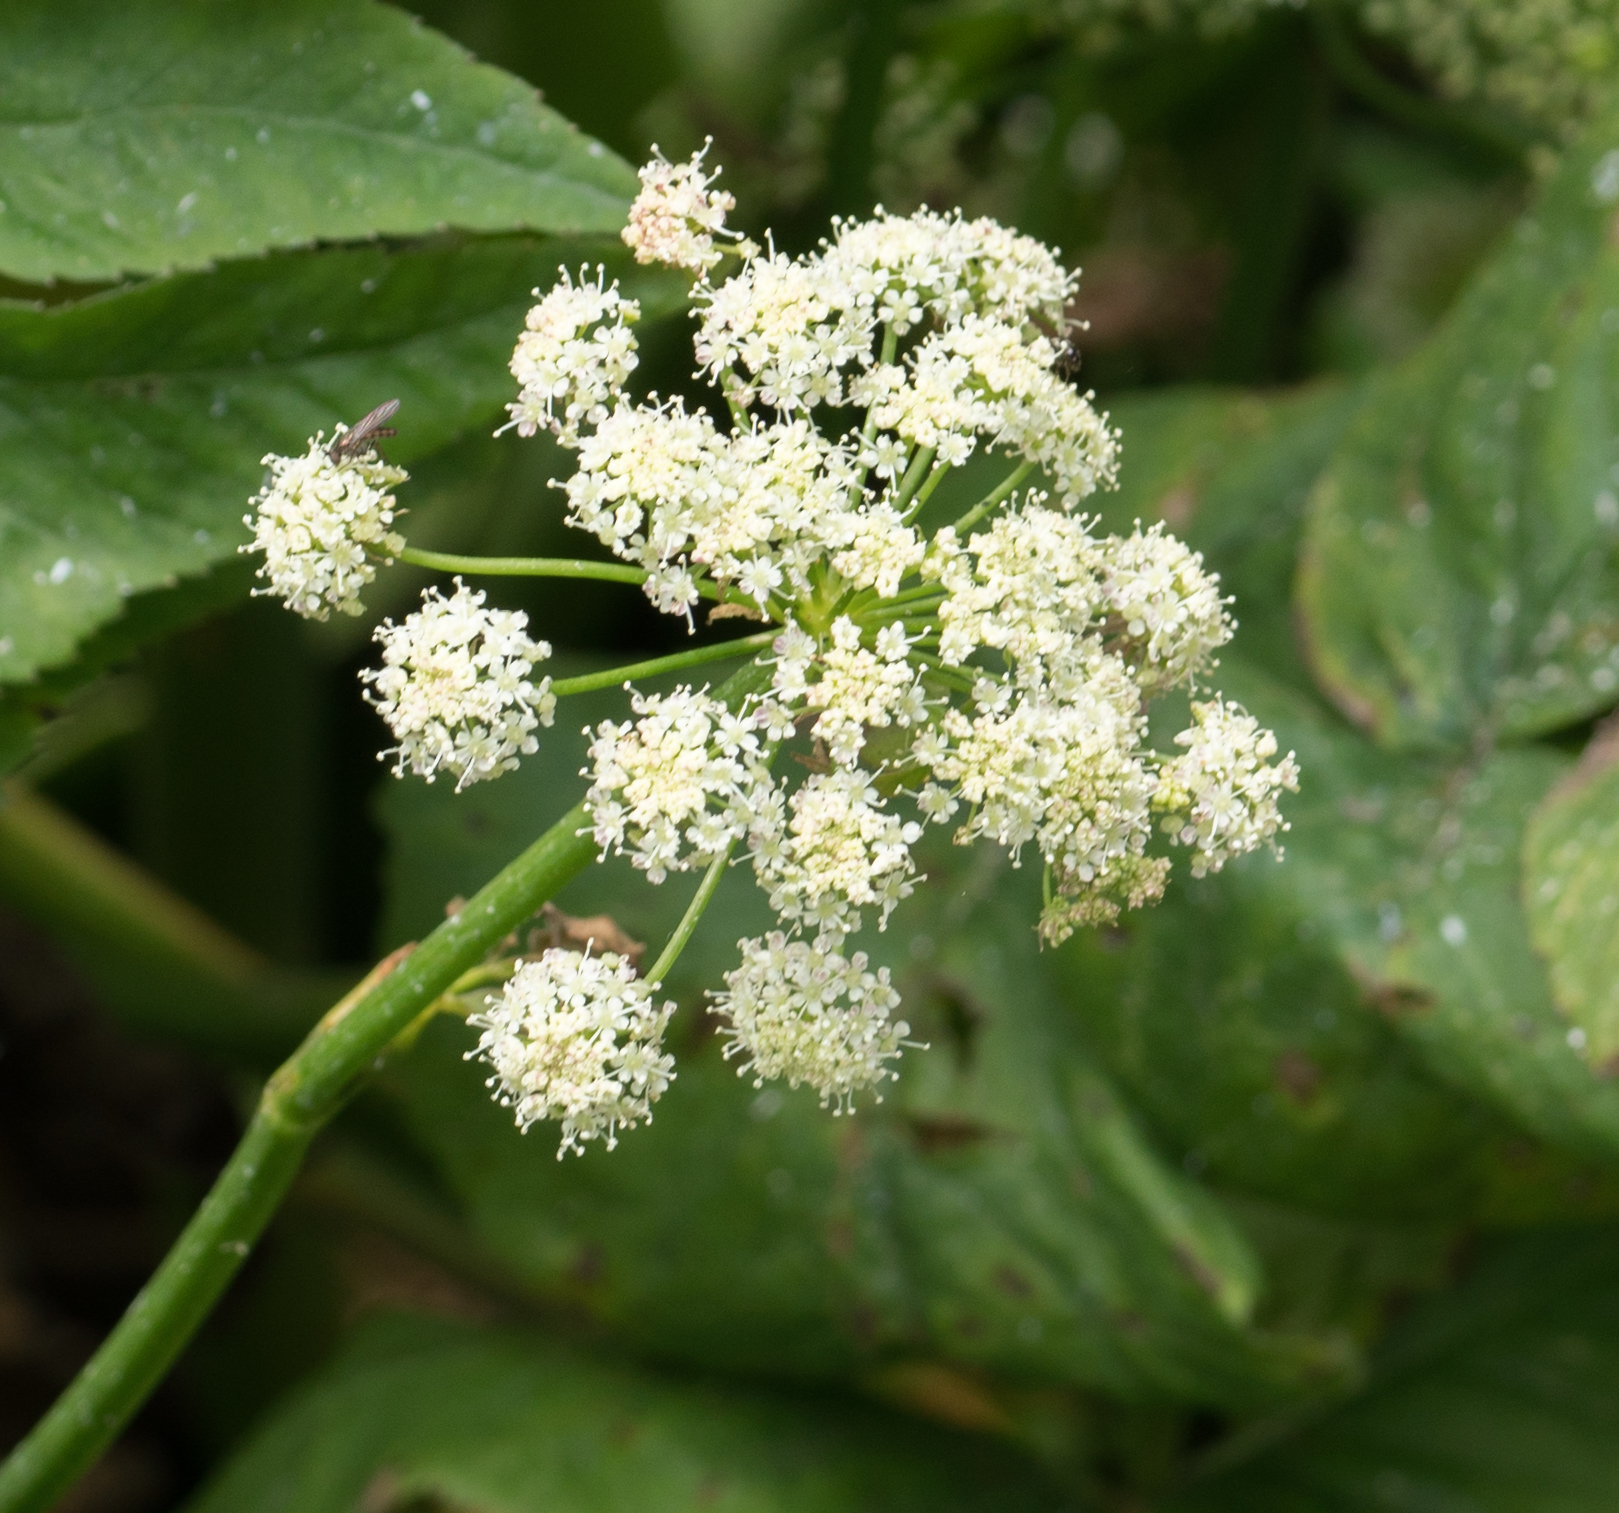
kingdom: Plantae
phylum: Tracheophyta
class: Magnoliopsida
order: Apiales
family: Apiaceae
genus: Cicuta
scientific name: Cicuta douglasii
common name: Western water-hemlock
